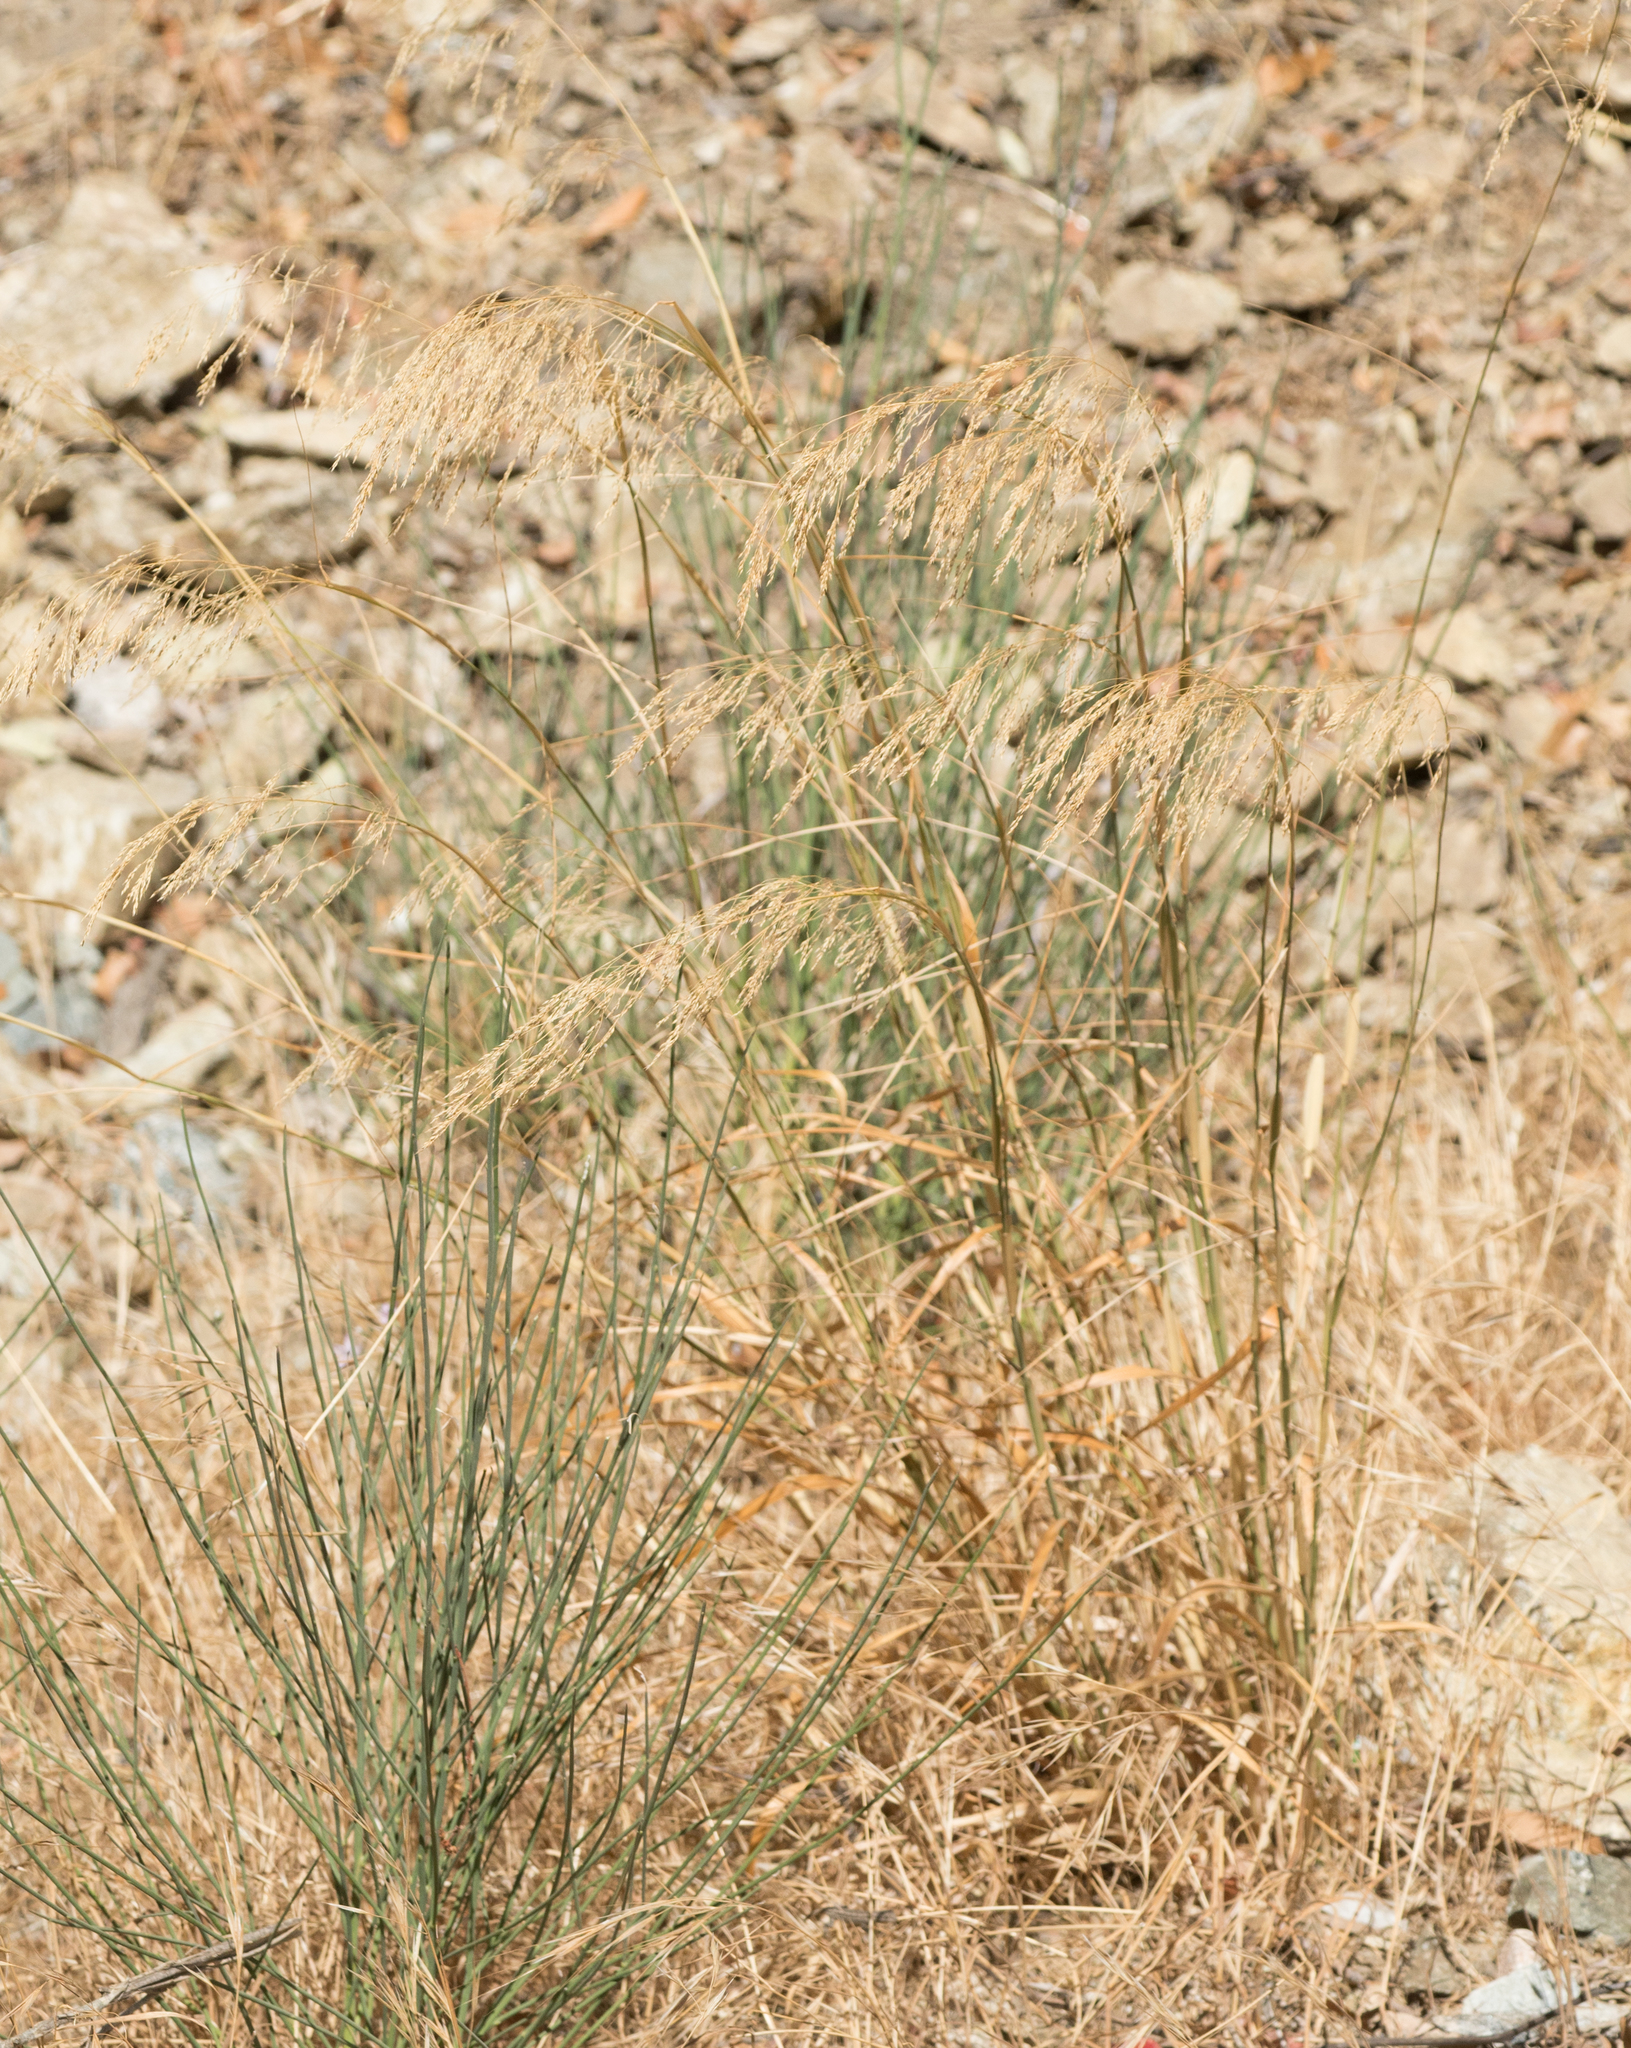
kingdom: Plantae
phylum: Tracheophyta
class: Liliopsida
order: Poales
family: Poaceae
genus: Oloptum
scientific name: Oloptum miliaceum
